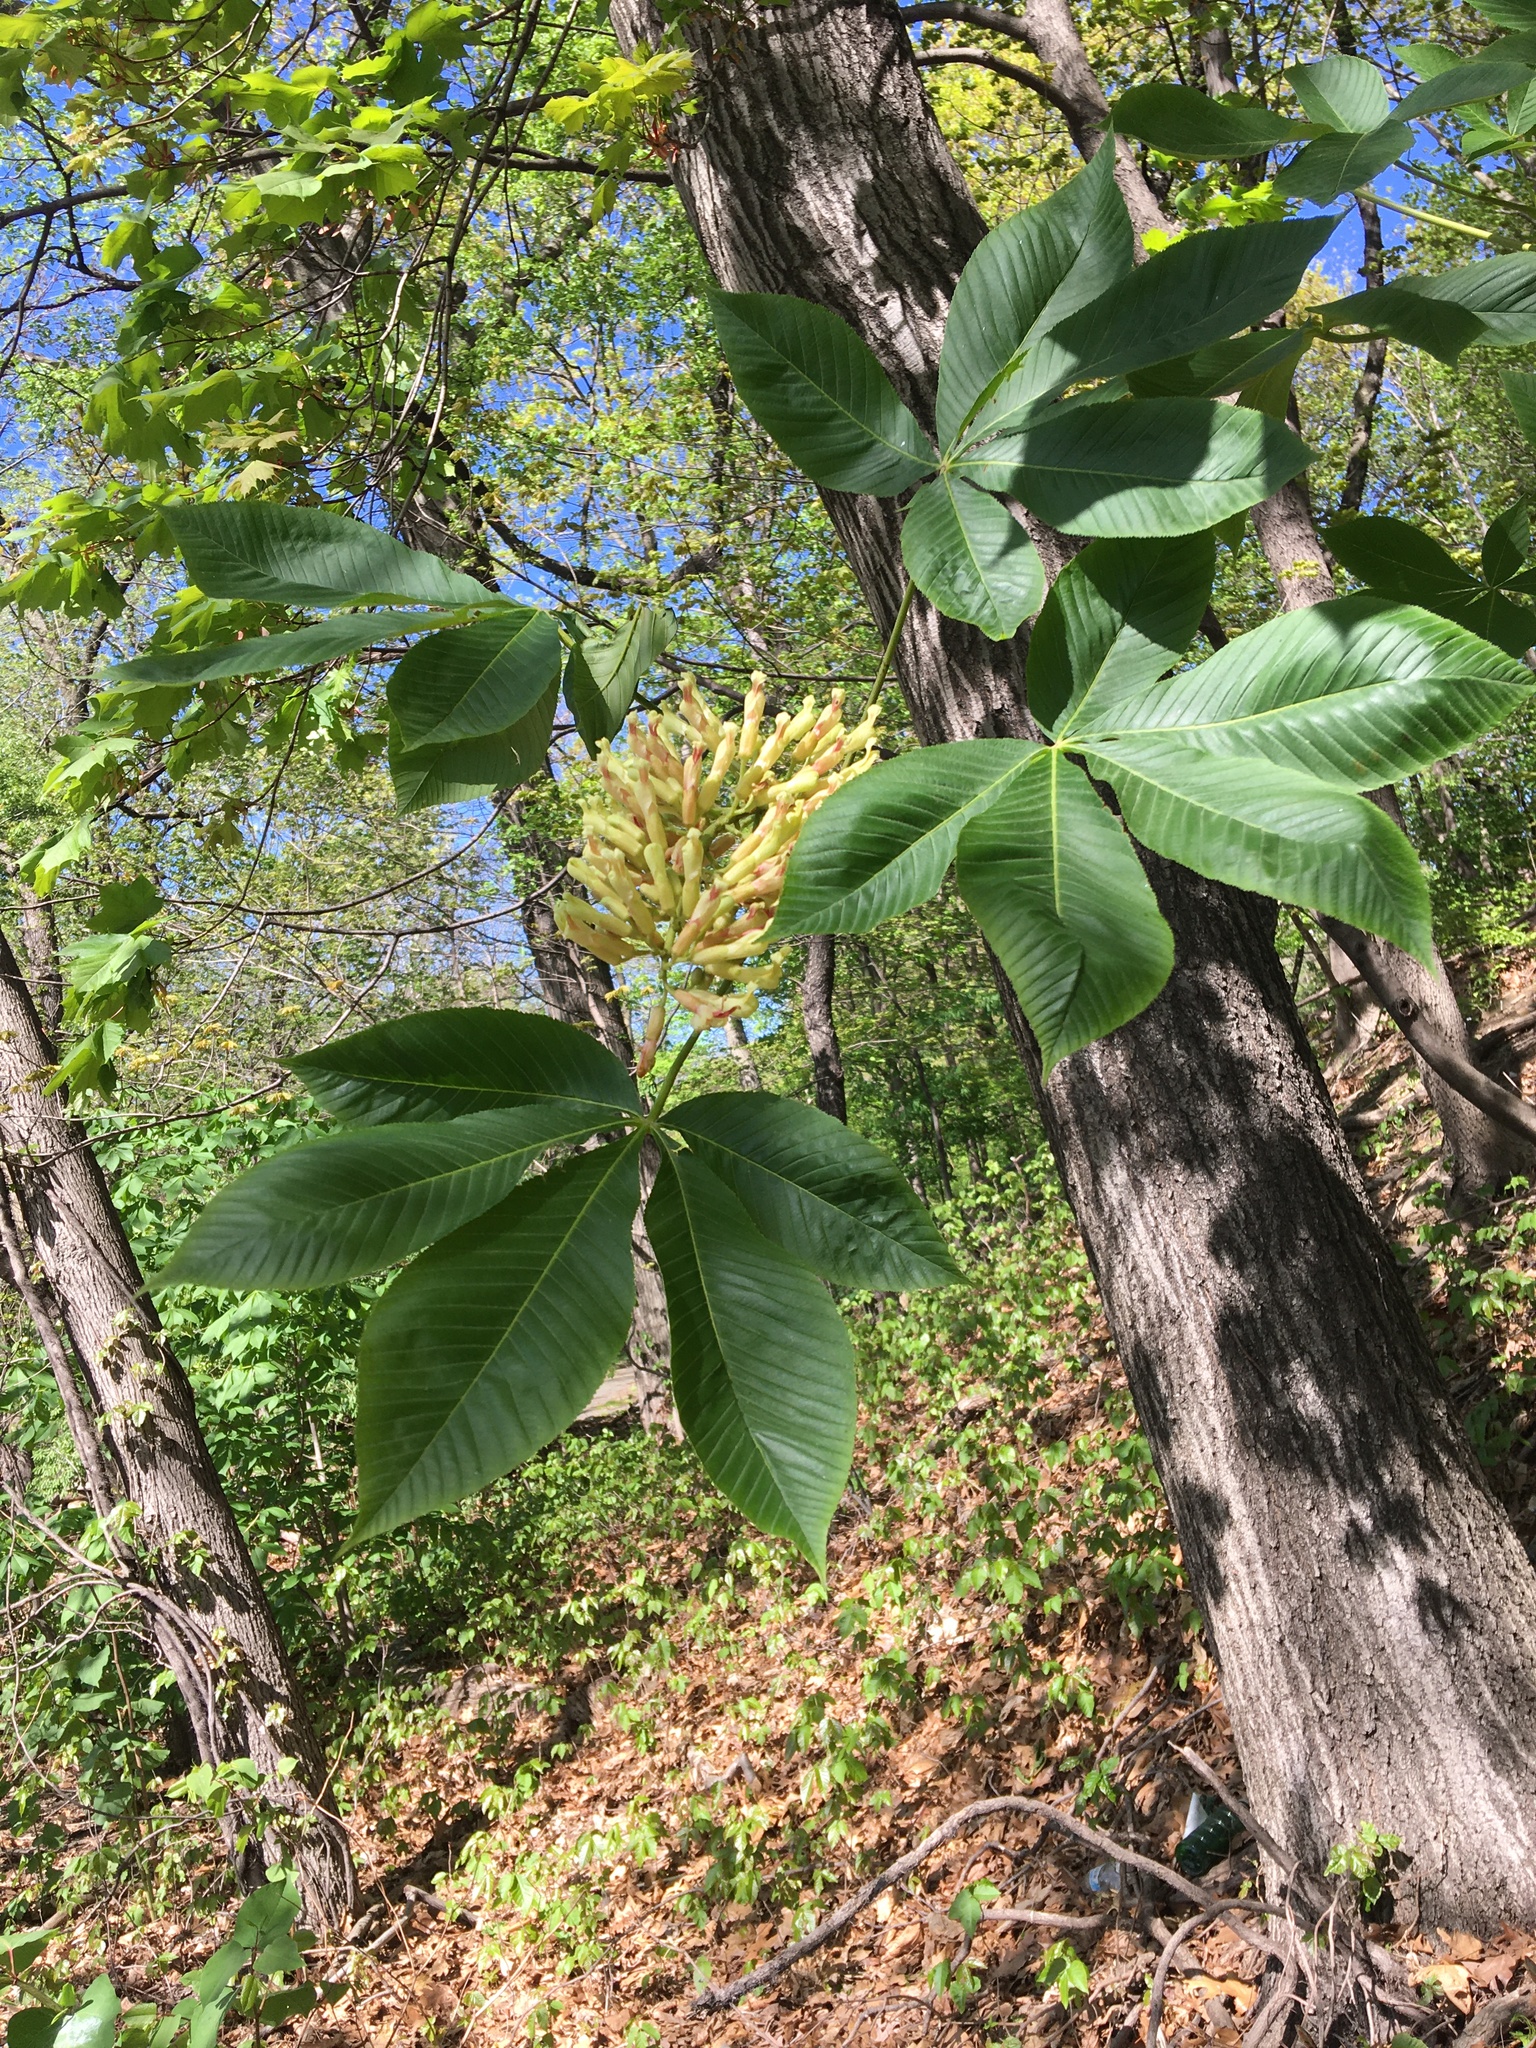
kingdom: Plantae
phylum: Tracheophyta
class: Magnoliopsida
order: Sapindales
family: Sapindaceae
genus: Aesculus
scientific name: Aesculus flava
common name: Yellow buckeye
